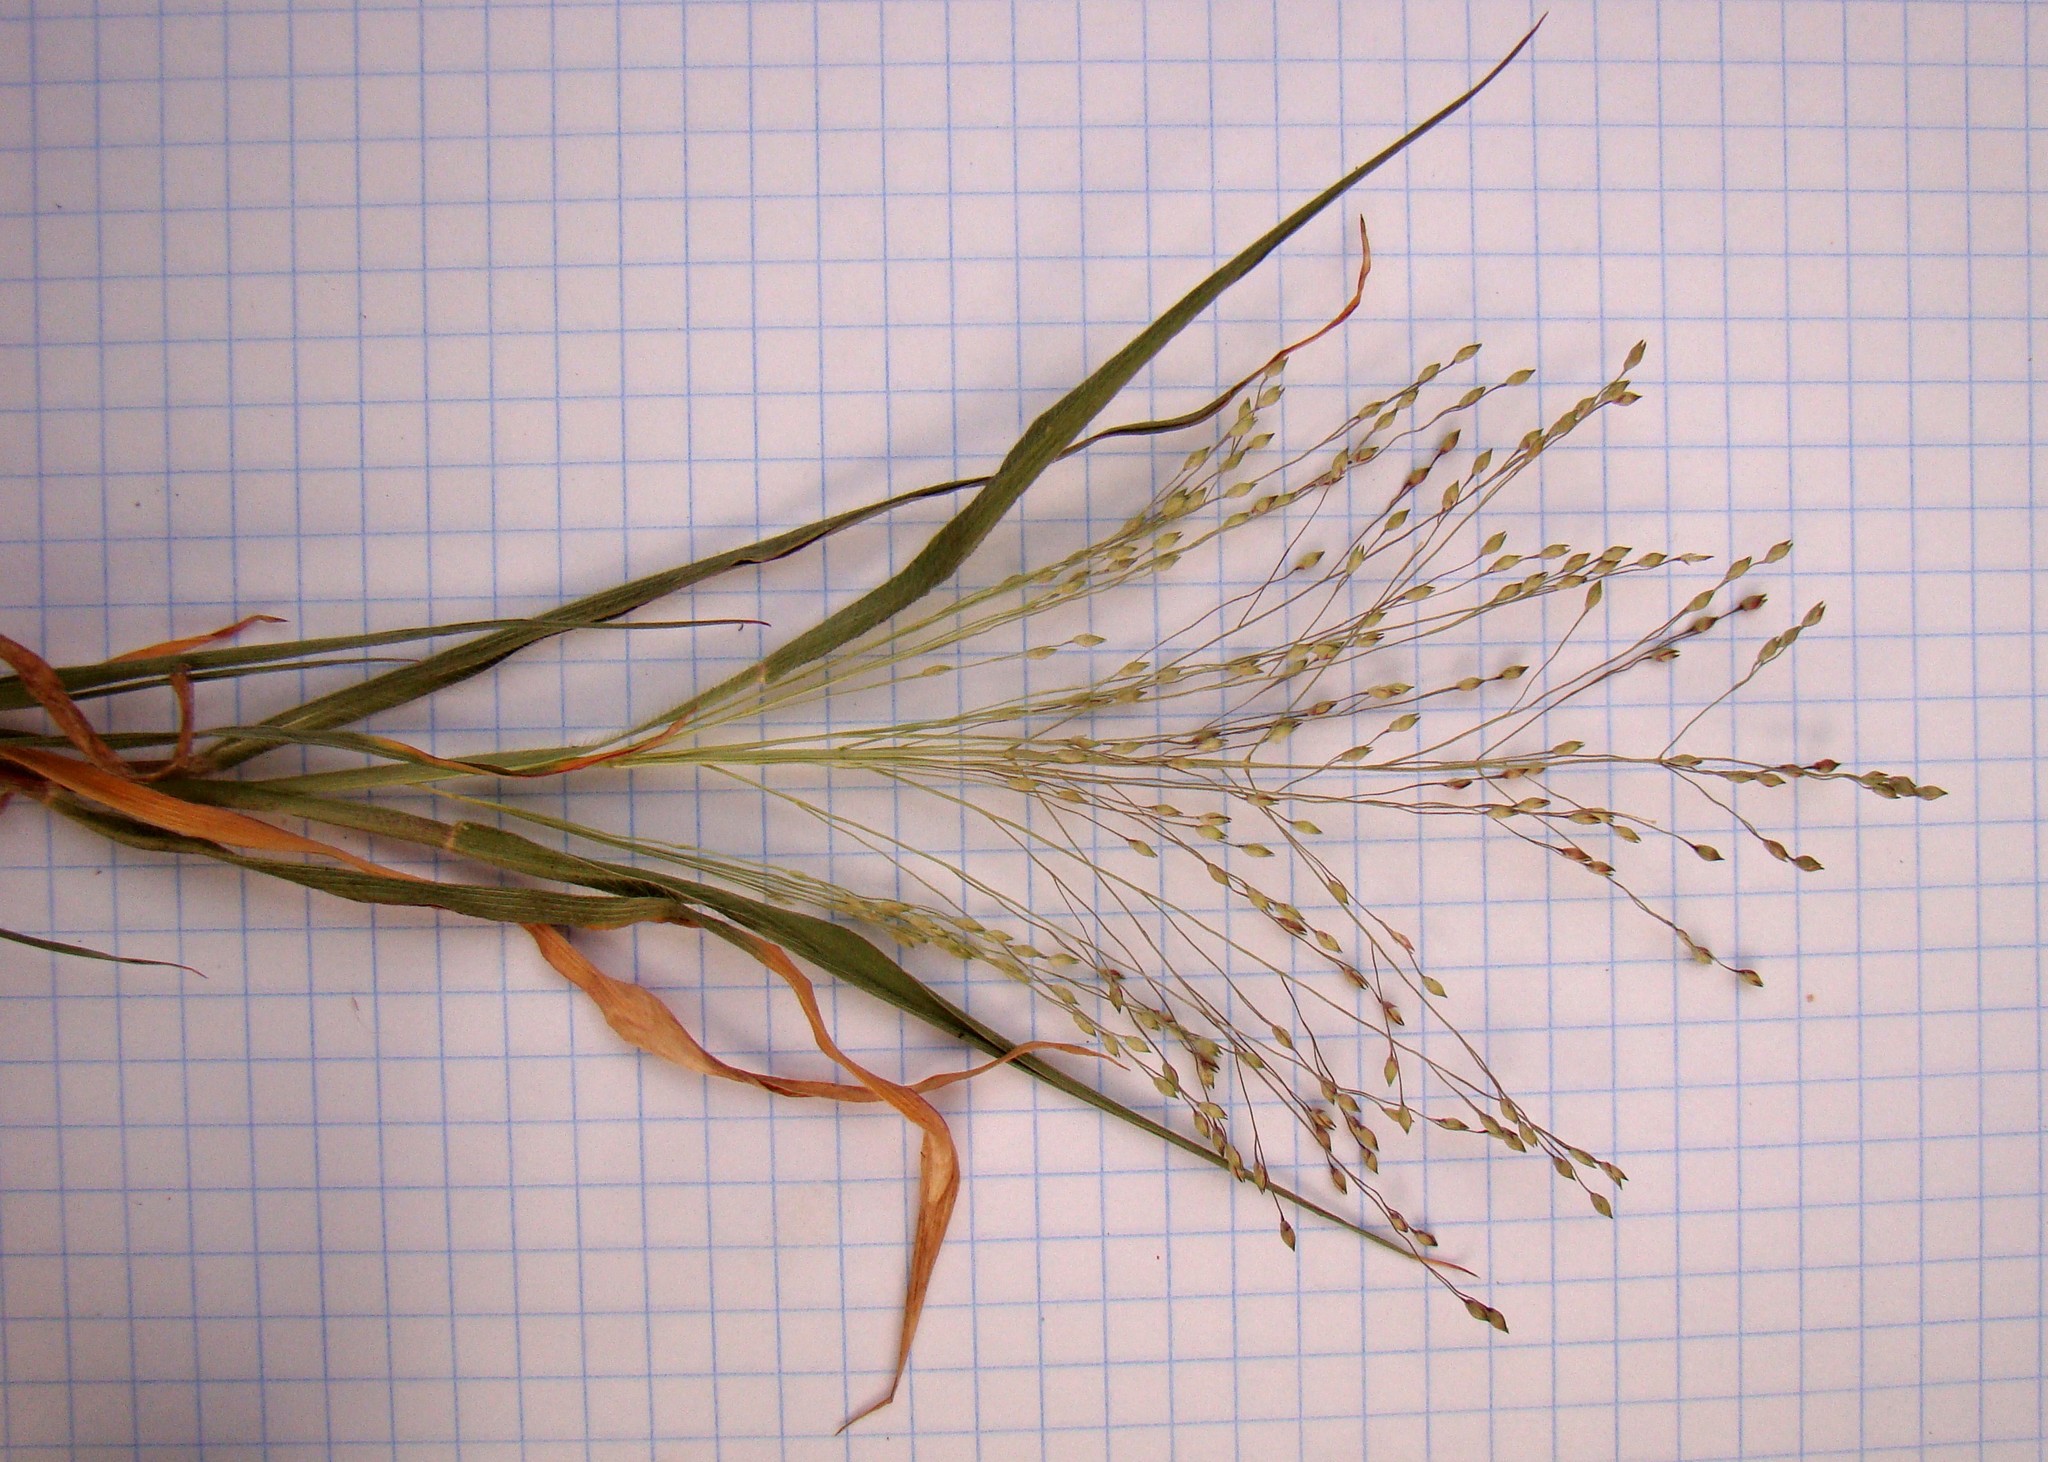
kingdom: Plantae
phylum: Tracheophyta
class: Liliopsida
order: Poales
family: Poaceae
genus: Panicum
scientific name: Panicum capillare
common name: Witch-grass
